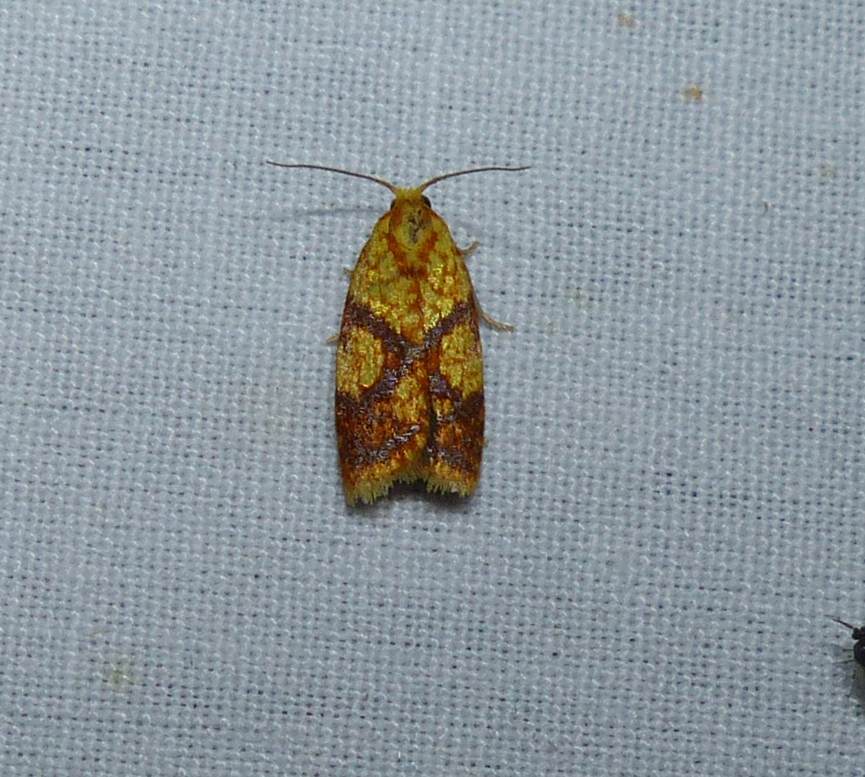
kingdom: Animalia
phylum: Arthropoda
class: Insecta
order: Lepidoptera
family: Tortricidae
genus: Sparganothis
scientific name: Sparganothis sulfureana
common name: Sparganothis fruitworm moth
